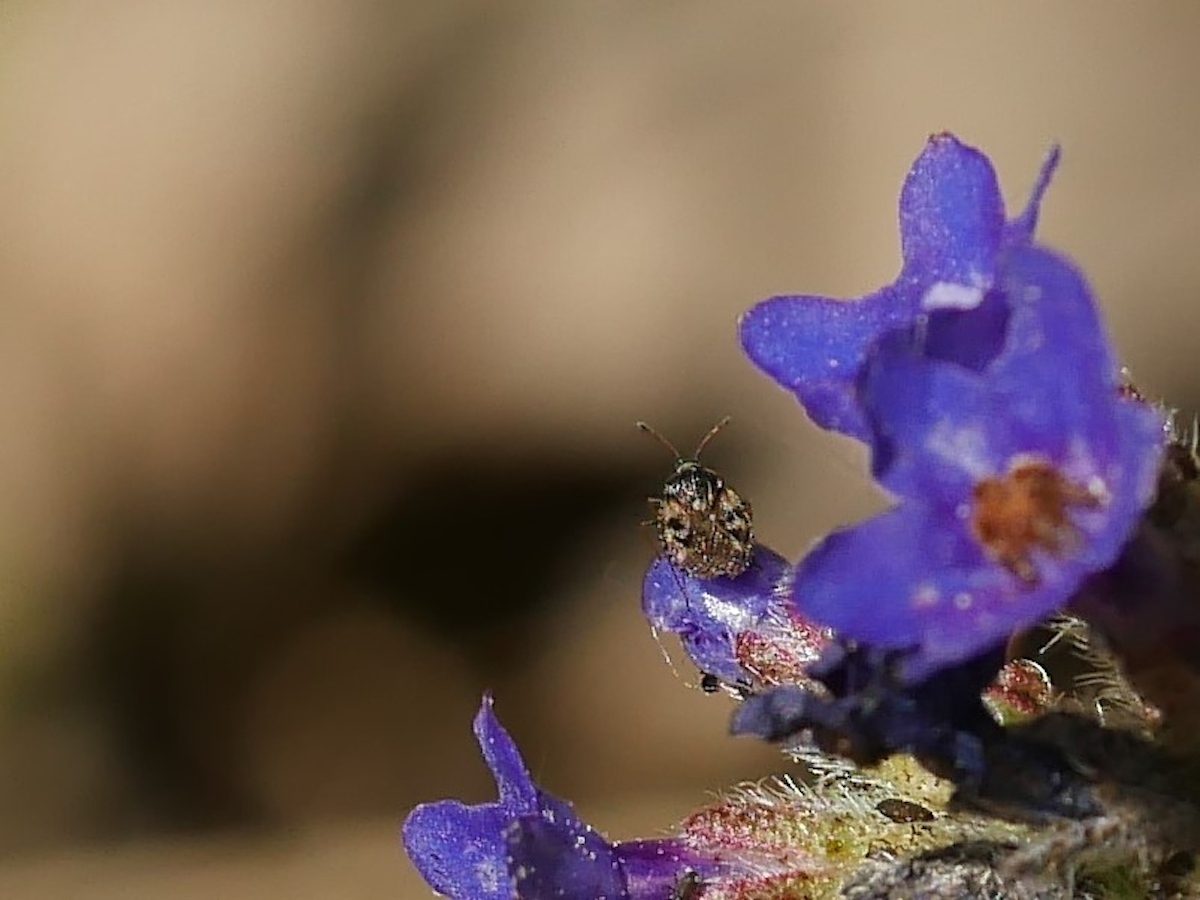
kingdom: Animalia
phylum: Arthropoda
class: Insecta
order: Hemiptera
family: Tingidae
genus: Dictyla
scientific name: Dictyla echii
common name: Lace bug
